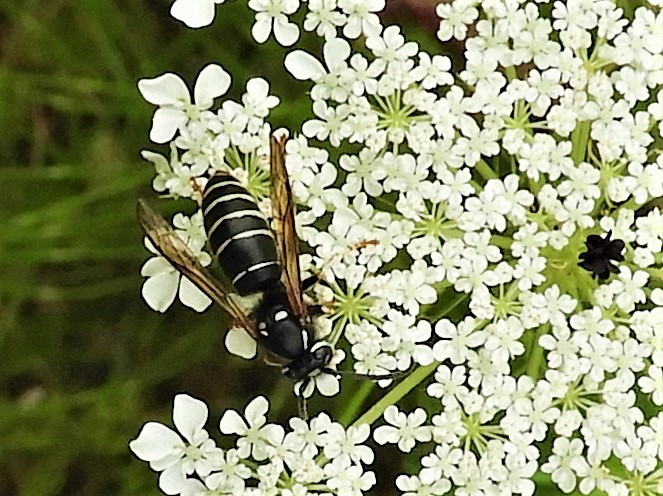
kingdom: Animalia
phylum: Arthropoda
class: Insecta
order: Hymenoptera
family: Vespidae
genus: Vespula
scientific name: Vespula consobrina
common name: Blackjacket
